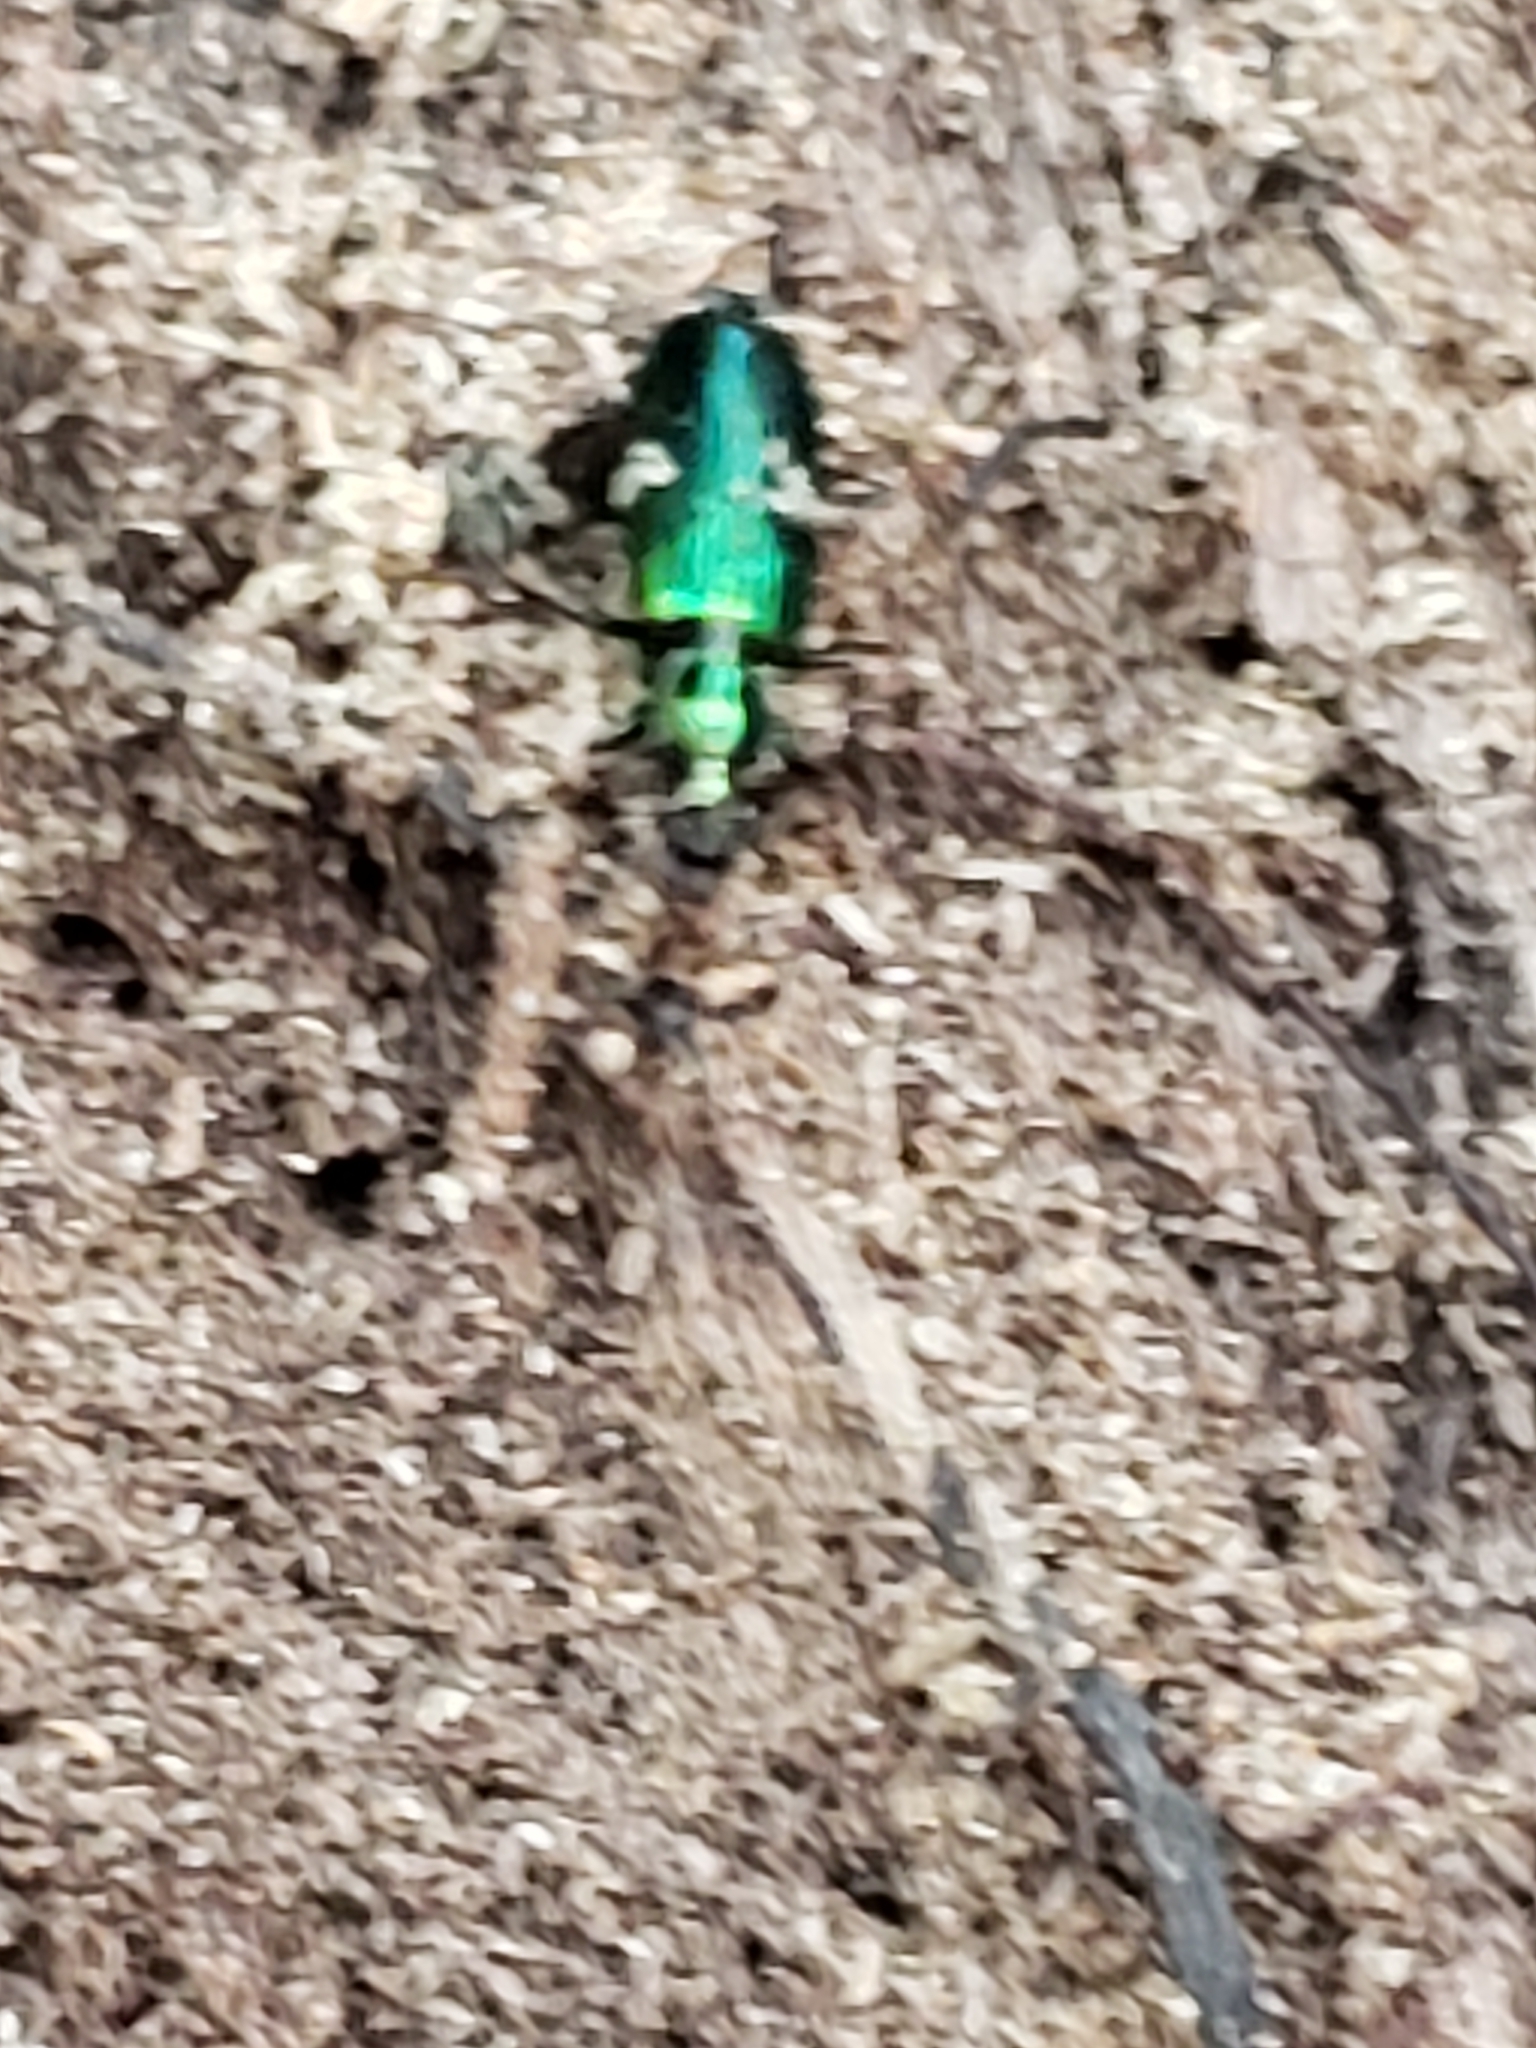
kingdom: Animalia
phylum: Arthropoda
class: Insecta
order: Coleoptera
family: Carabidae
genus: Calleida
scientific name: Calleida viridipennis
